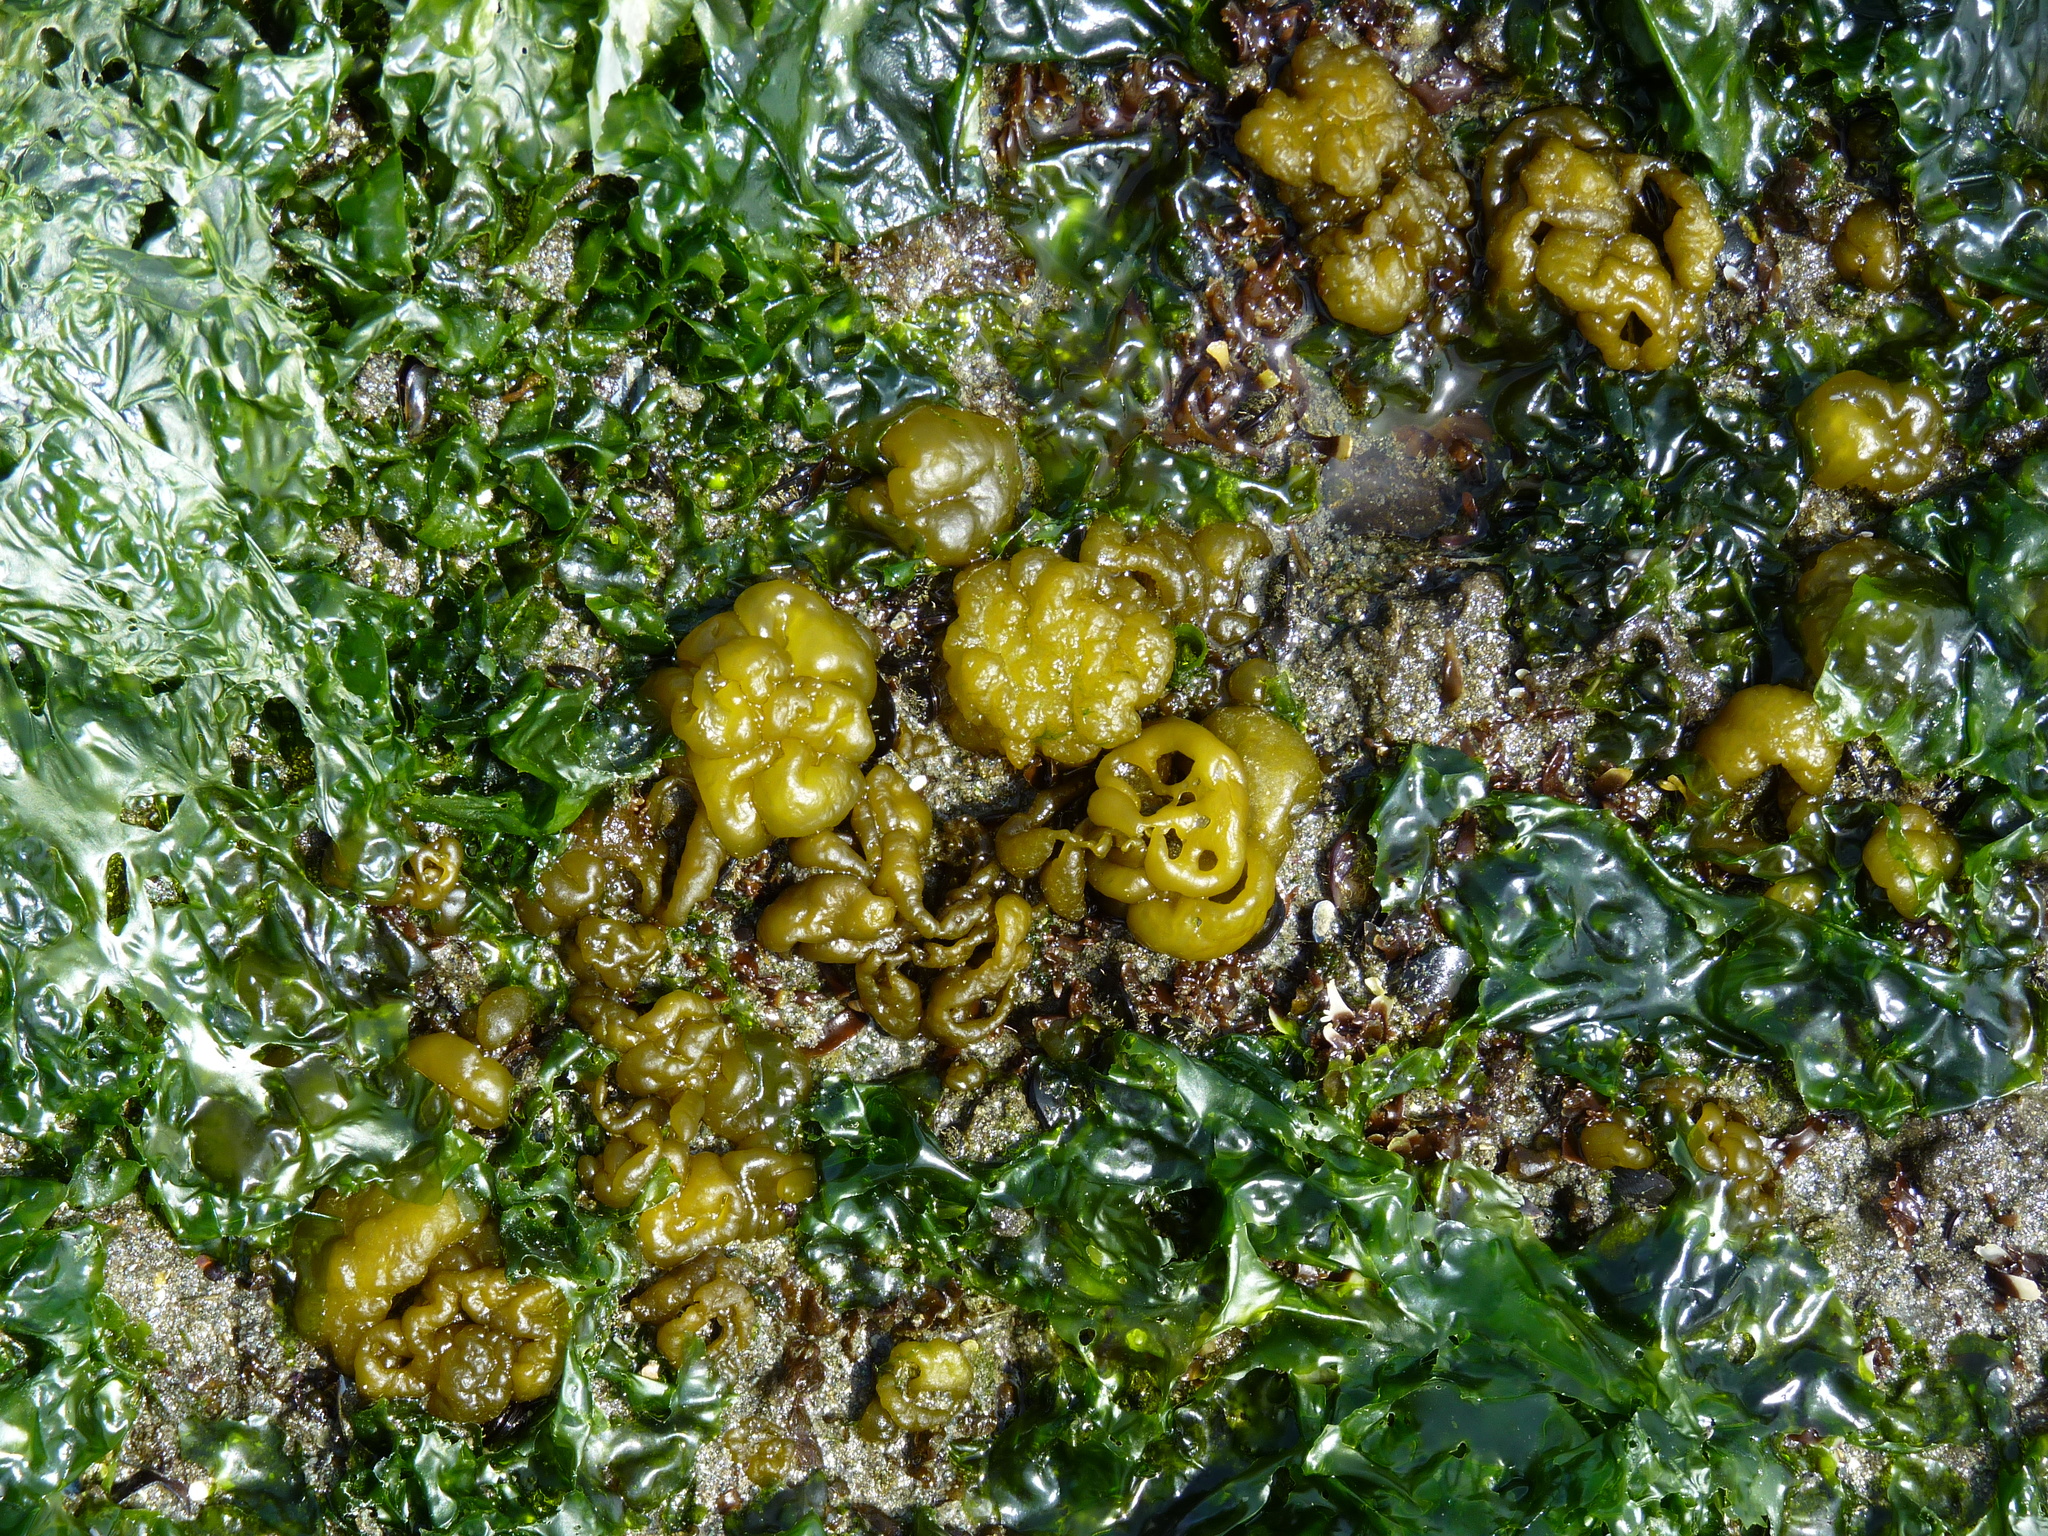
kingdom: Chromista
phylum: Ochrophyta
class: Phaeophyceae
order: Ectocarpales
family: Chordariaceae
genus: Leathesia
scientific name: Leathesia marina
